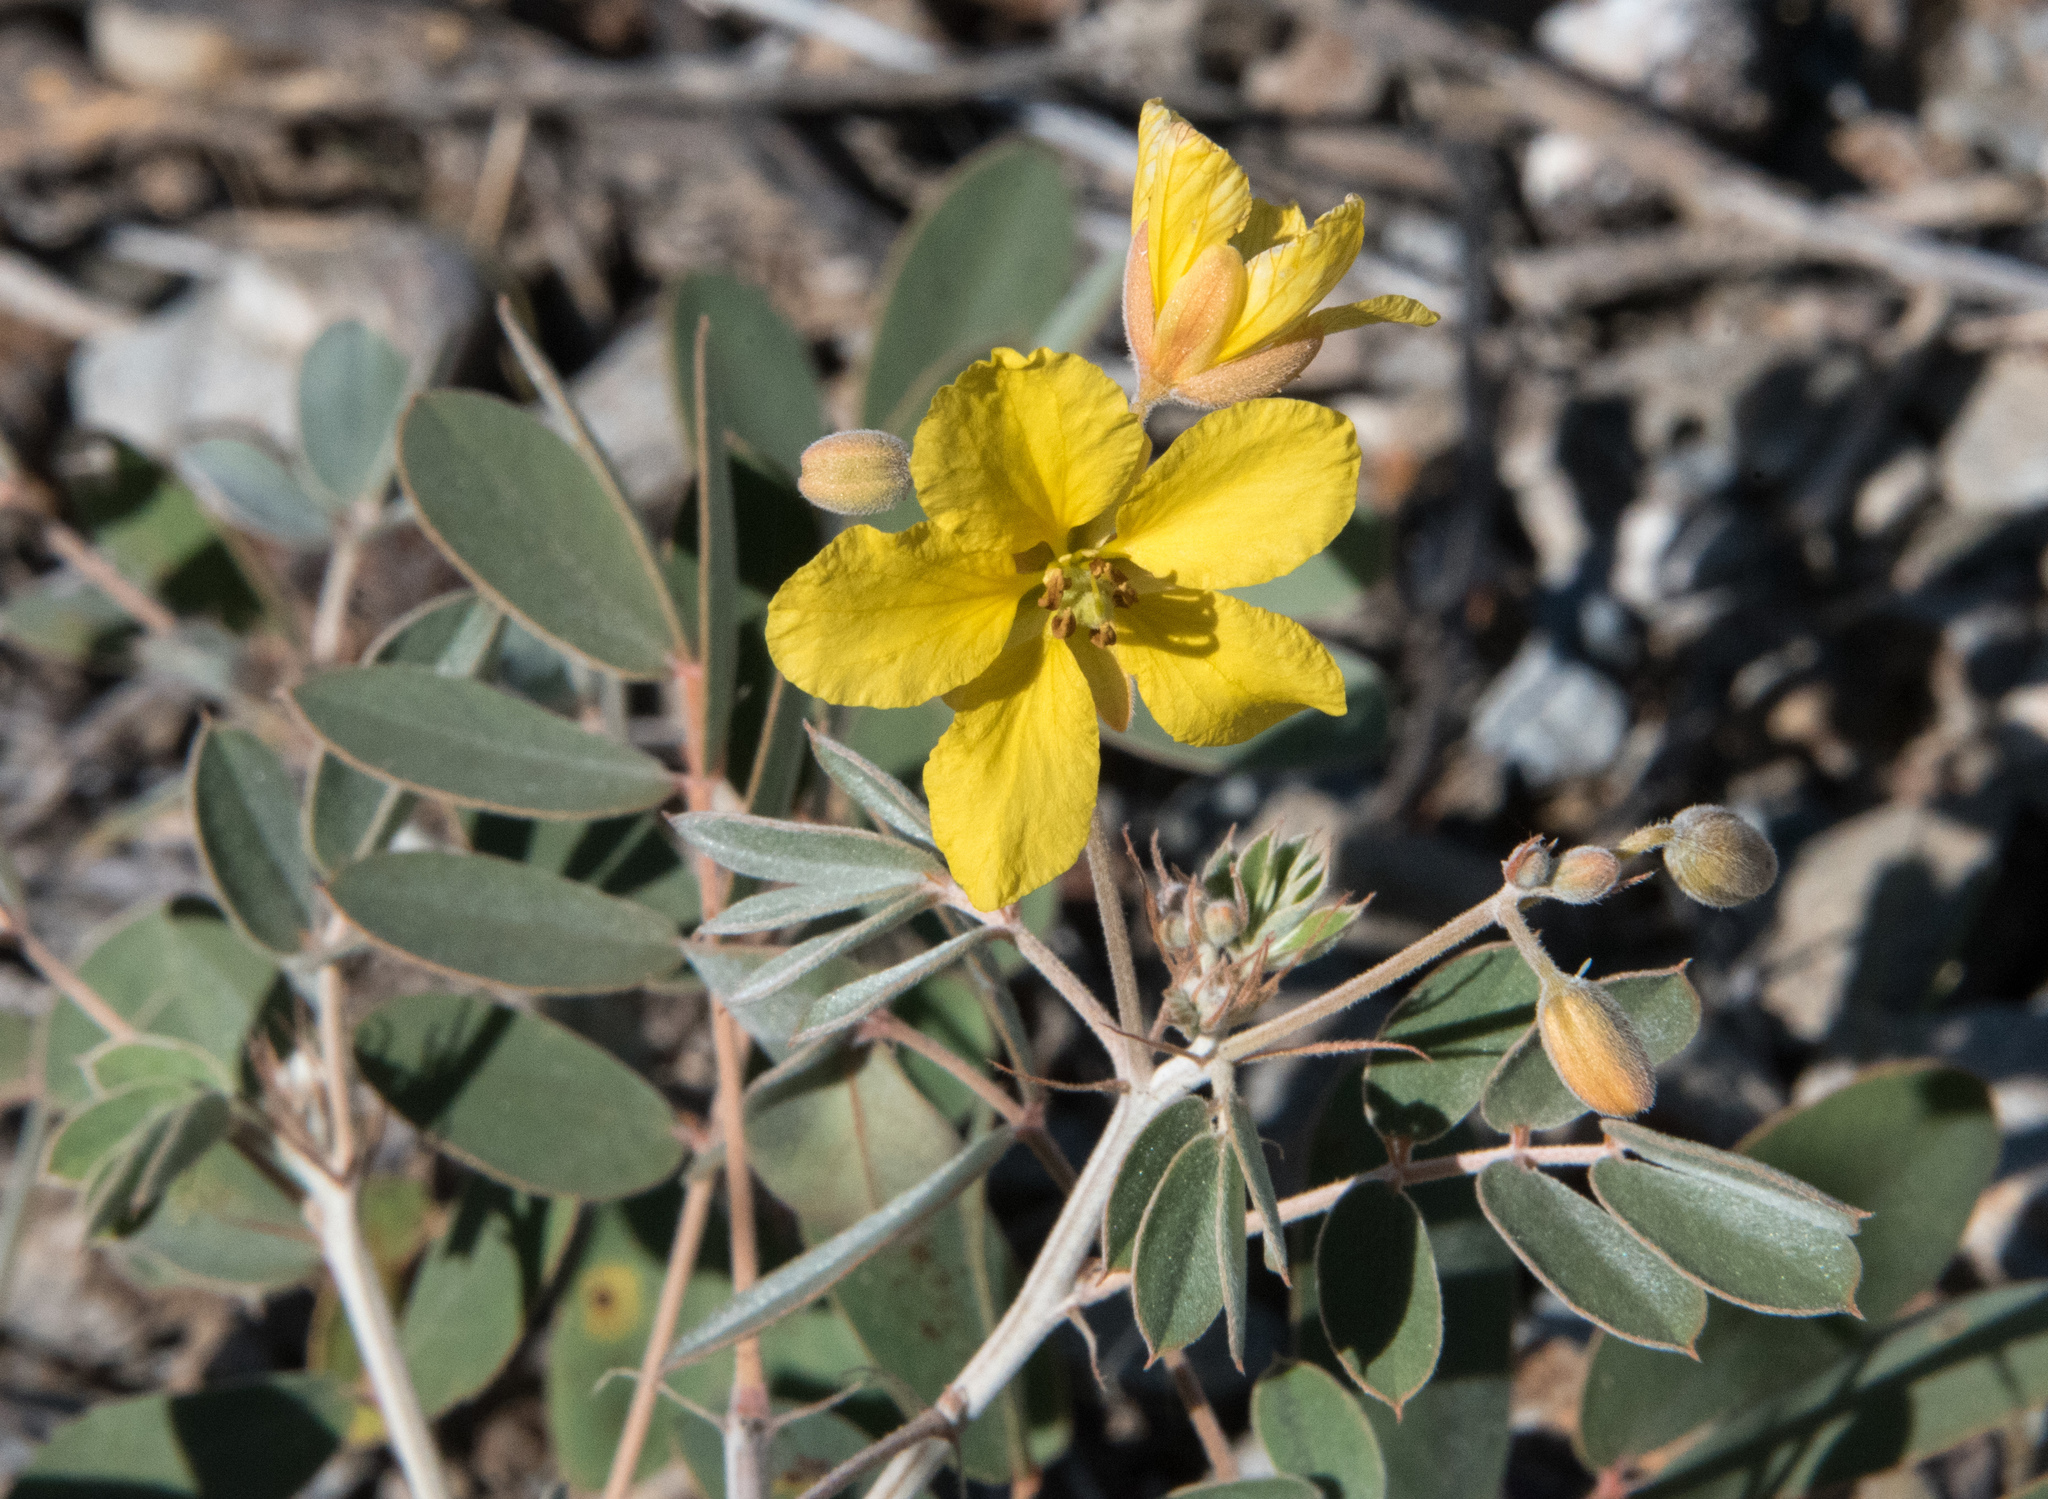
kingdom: Plantae
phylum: Tracheophyta
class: Magnoliopsida
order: Fabales
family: Fabaceae
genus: Senna
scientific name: Senna covesii
